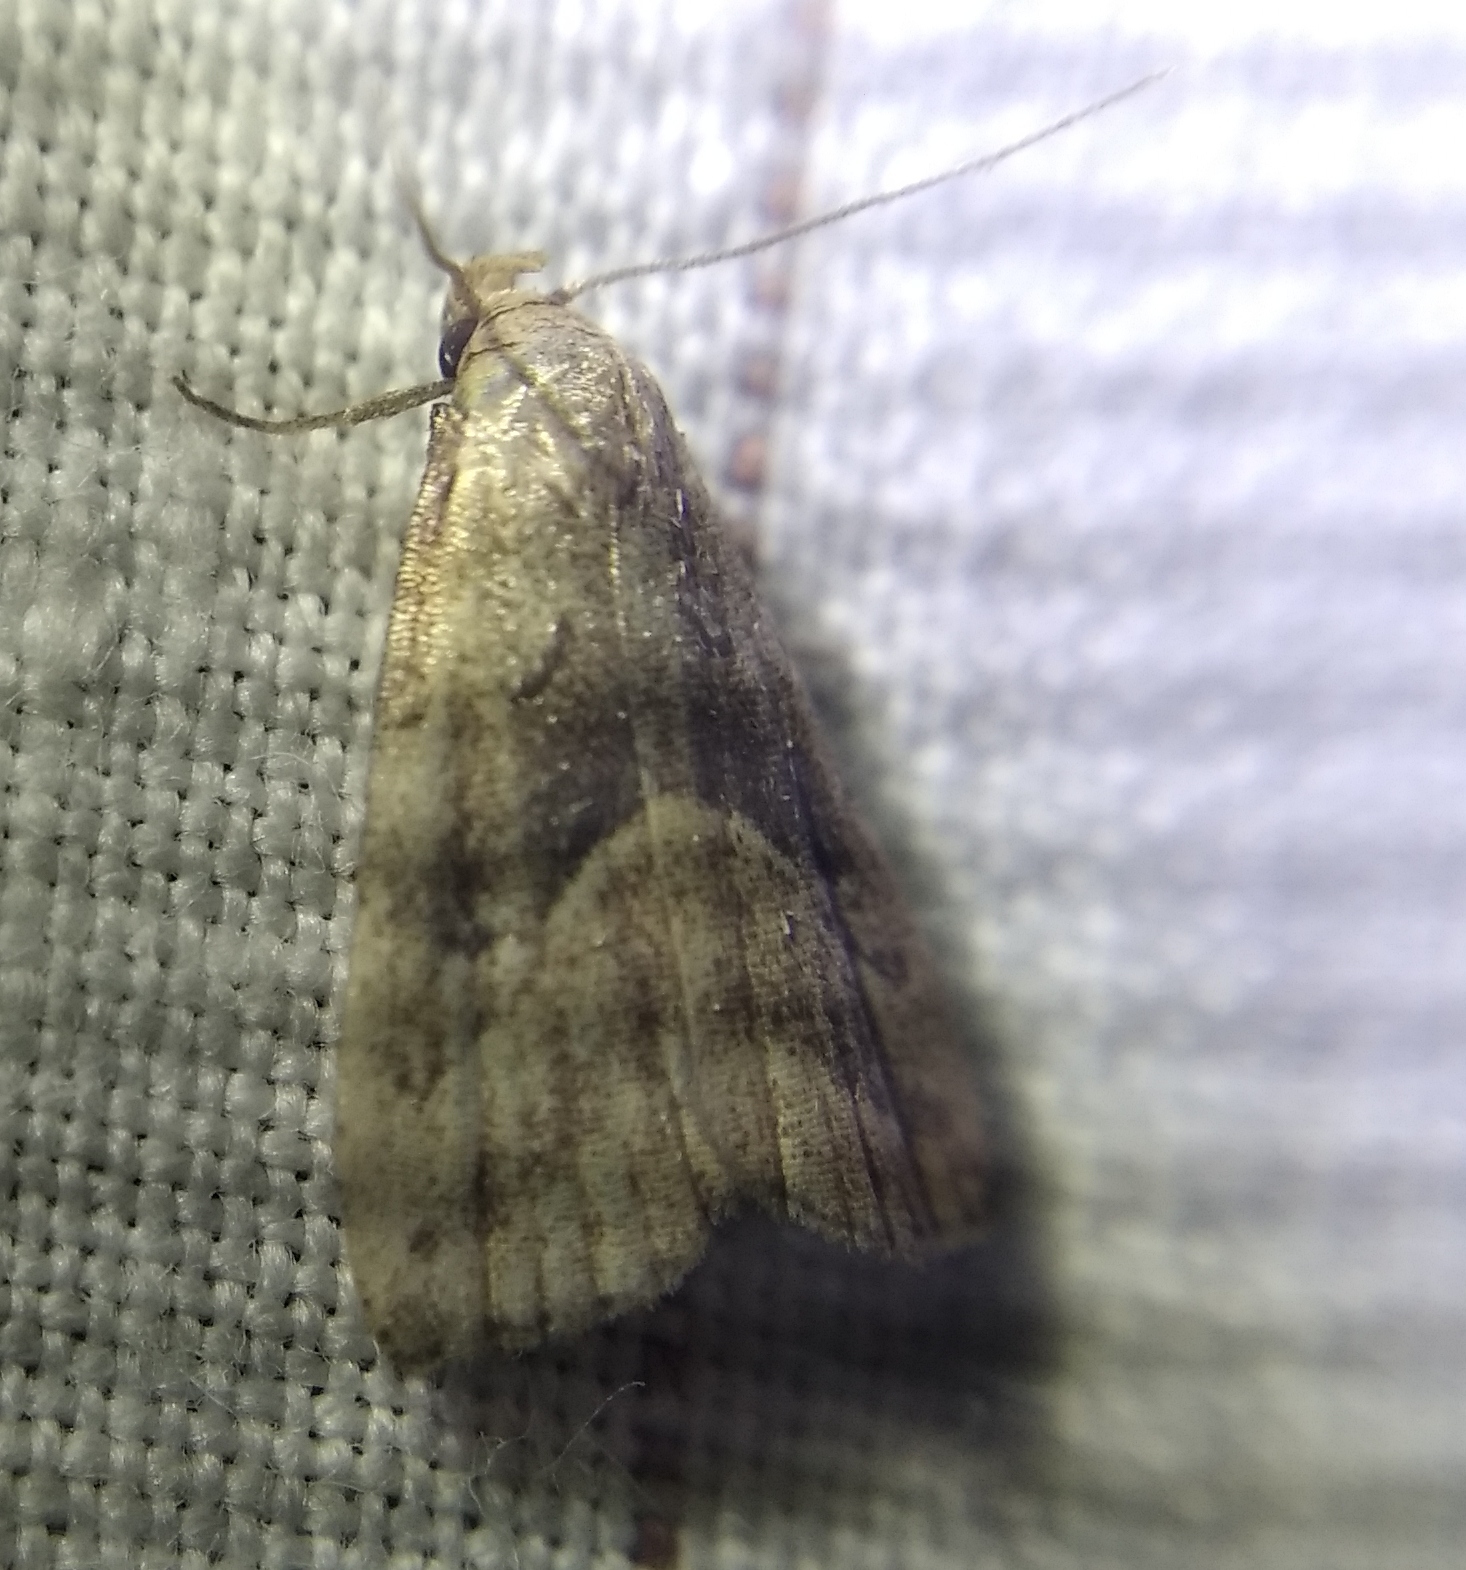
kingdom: Animalia
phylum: Arthropoda
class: Insecta
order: Lepidoptera
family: Erebidae
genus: Hypenodes
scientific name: Hypenodes humidalis
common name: Marsh oblique-barred
